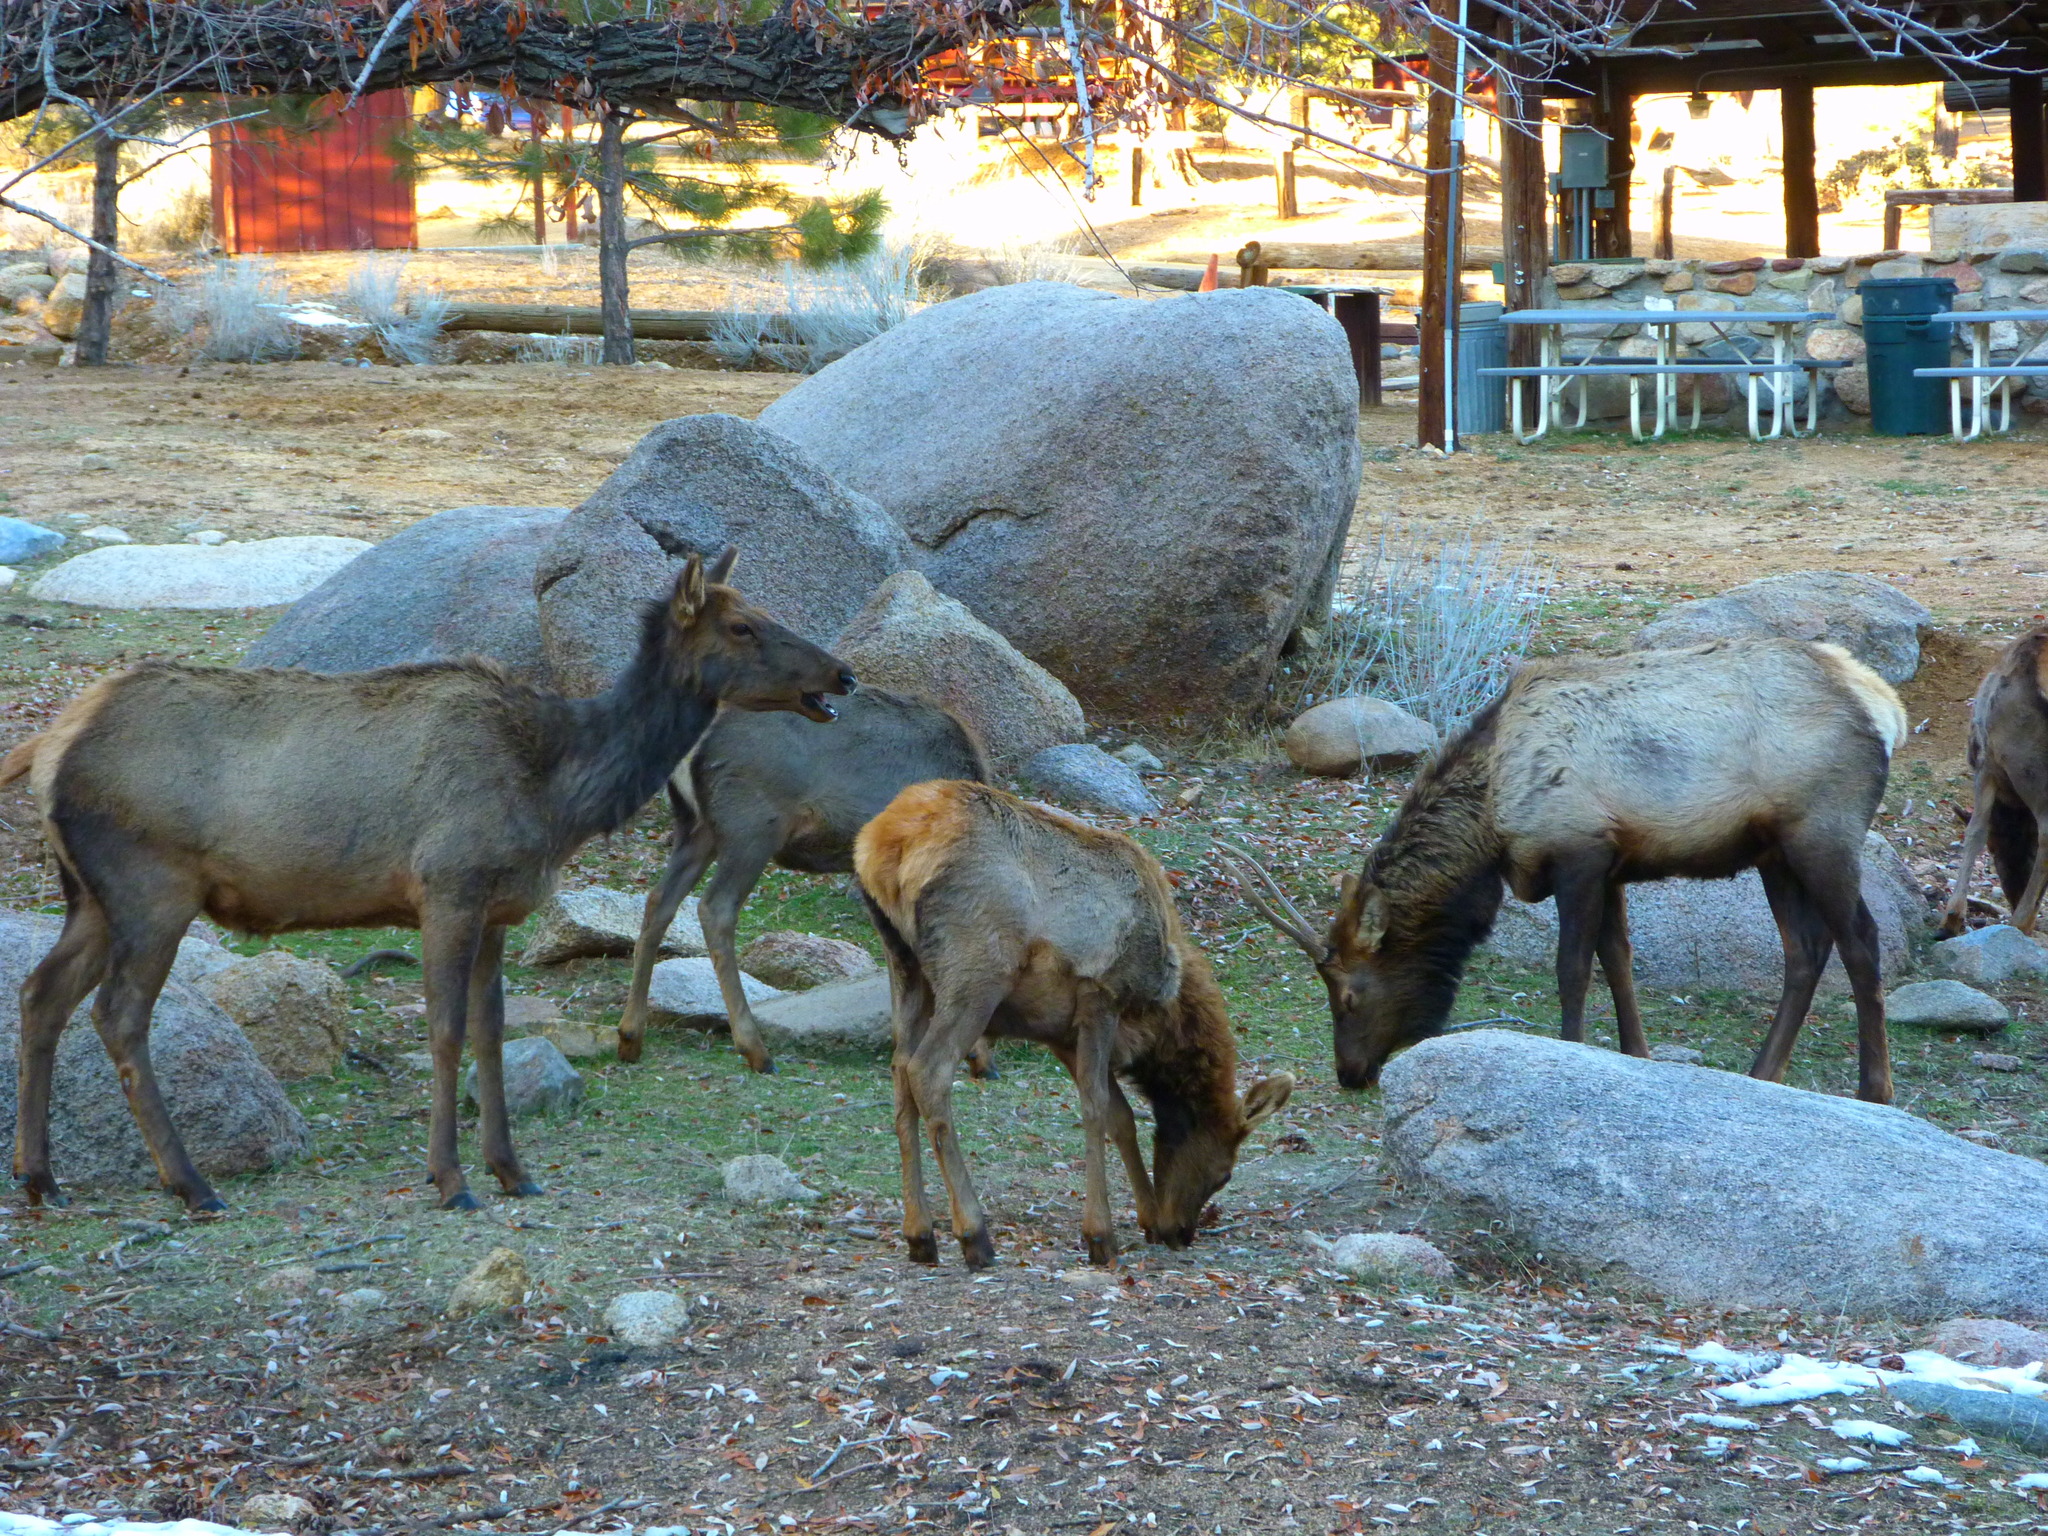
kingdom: Animalia
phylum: Chordata
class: Mammalia
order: Artiodactyla
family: Cervidae
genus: Cervus
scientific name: Cervus elaphus
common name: Red deer
